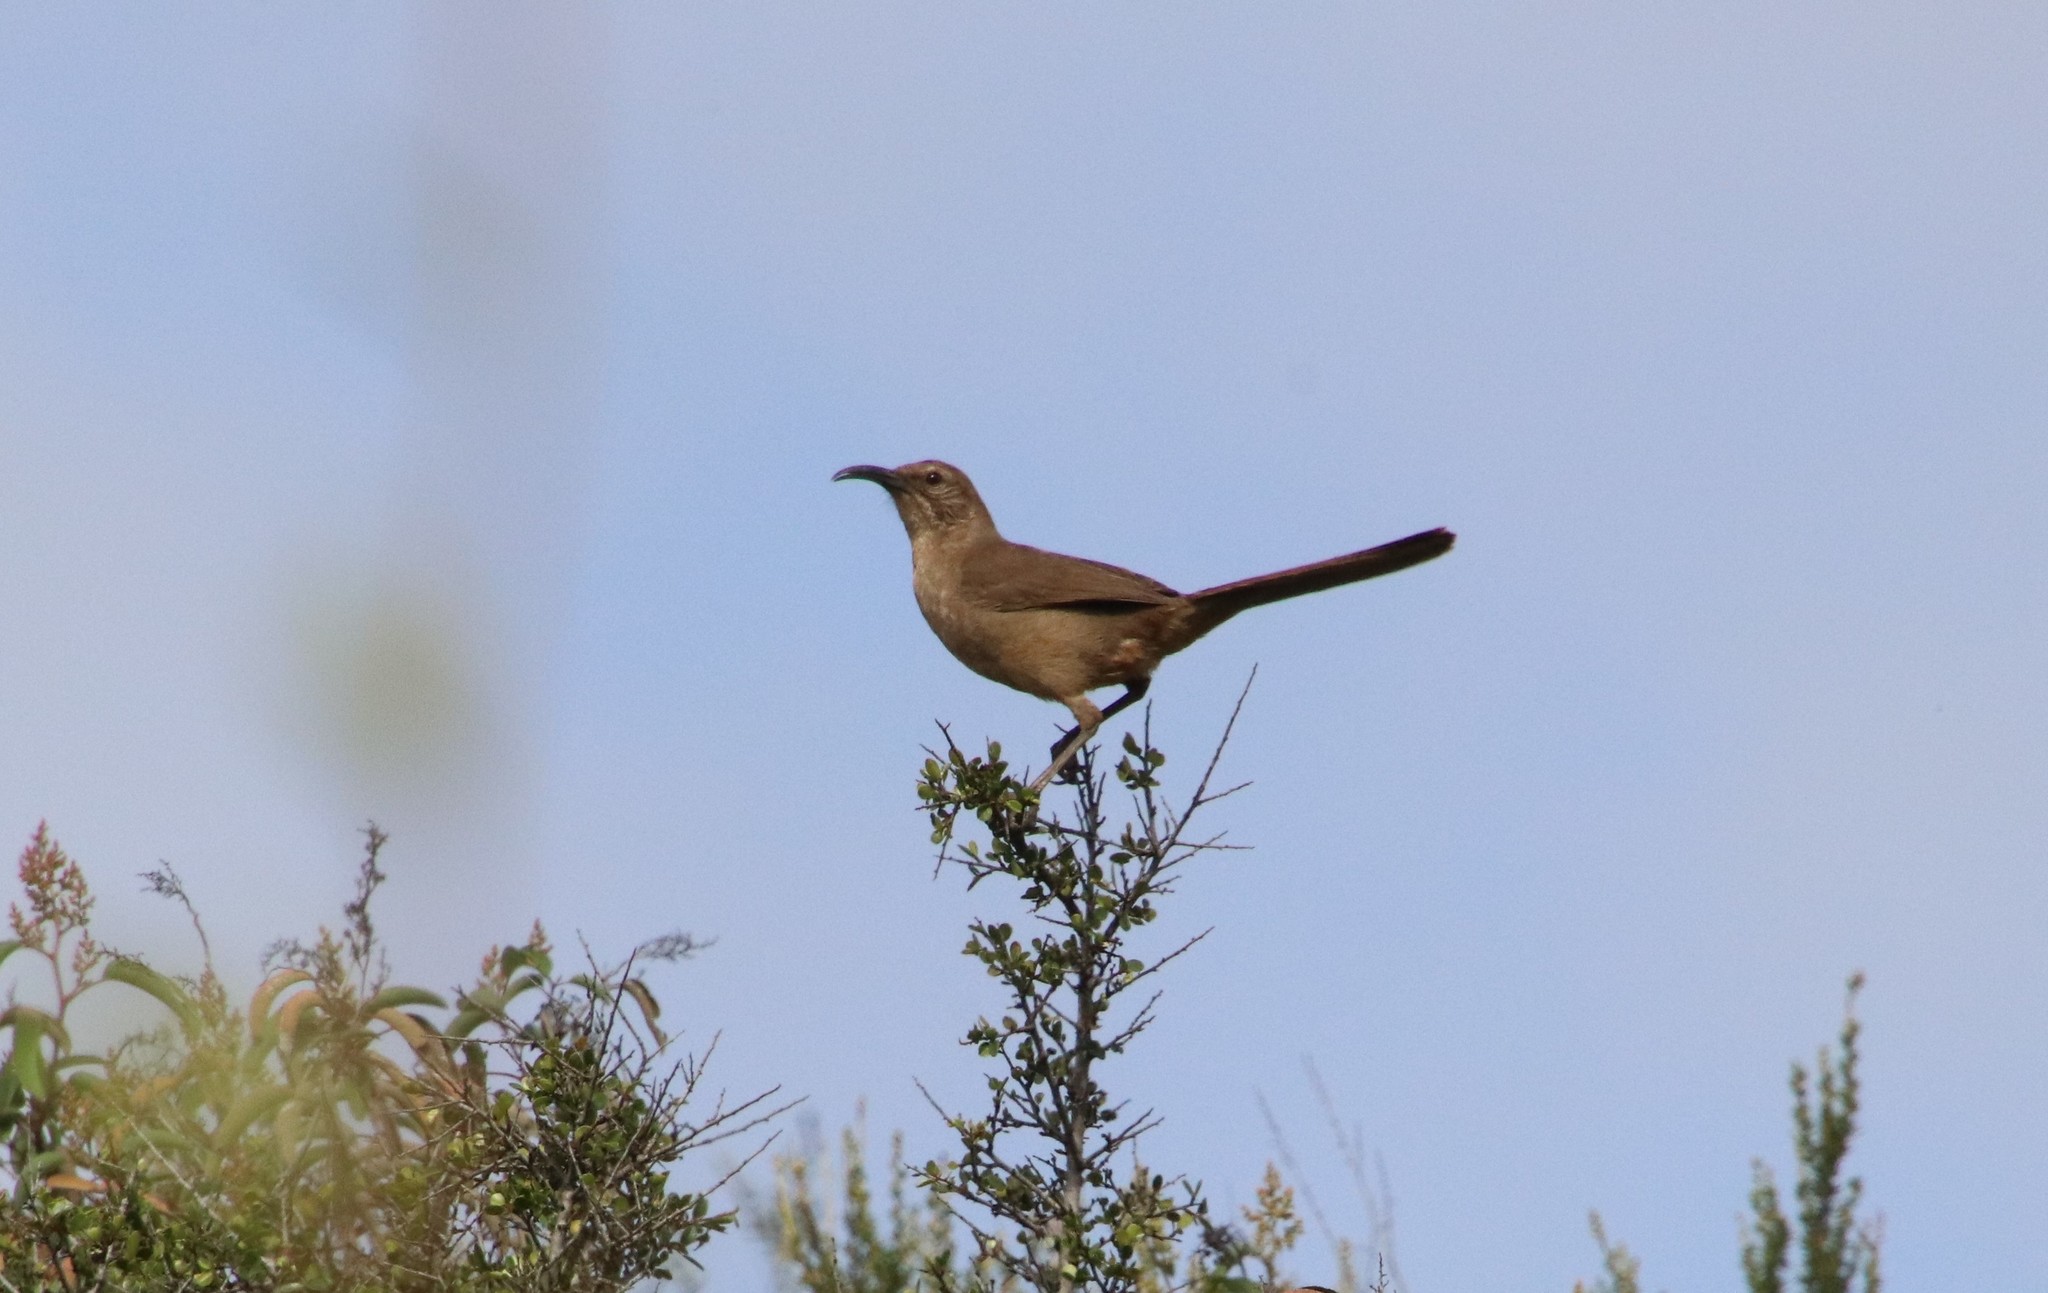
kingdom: Animalia
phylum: Chordata
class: Aves
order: Passeriformes
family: Mimidae
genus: Toxostoma
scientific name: Toxostoma redivivum
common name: California thrasher
